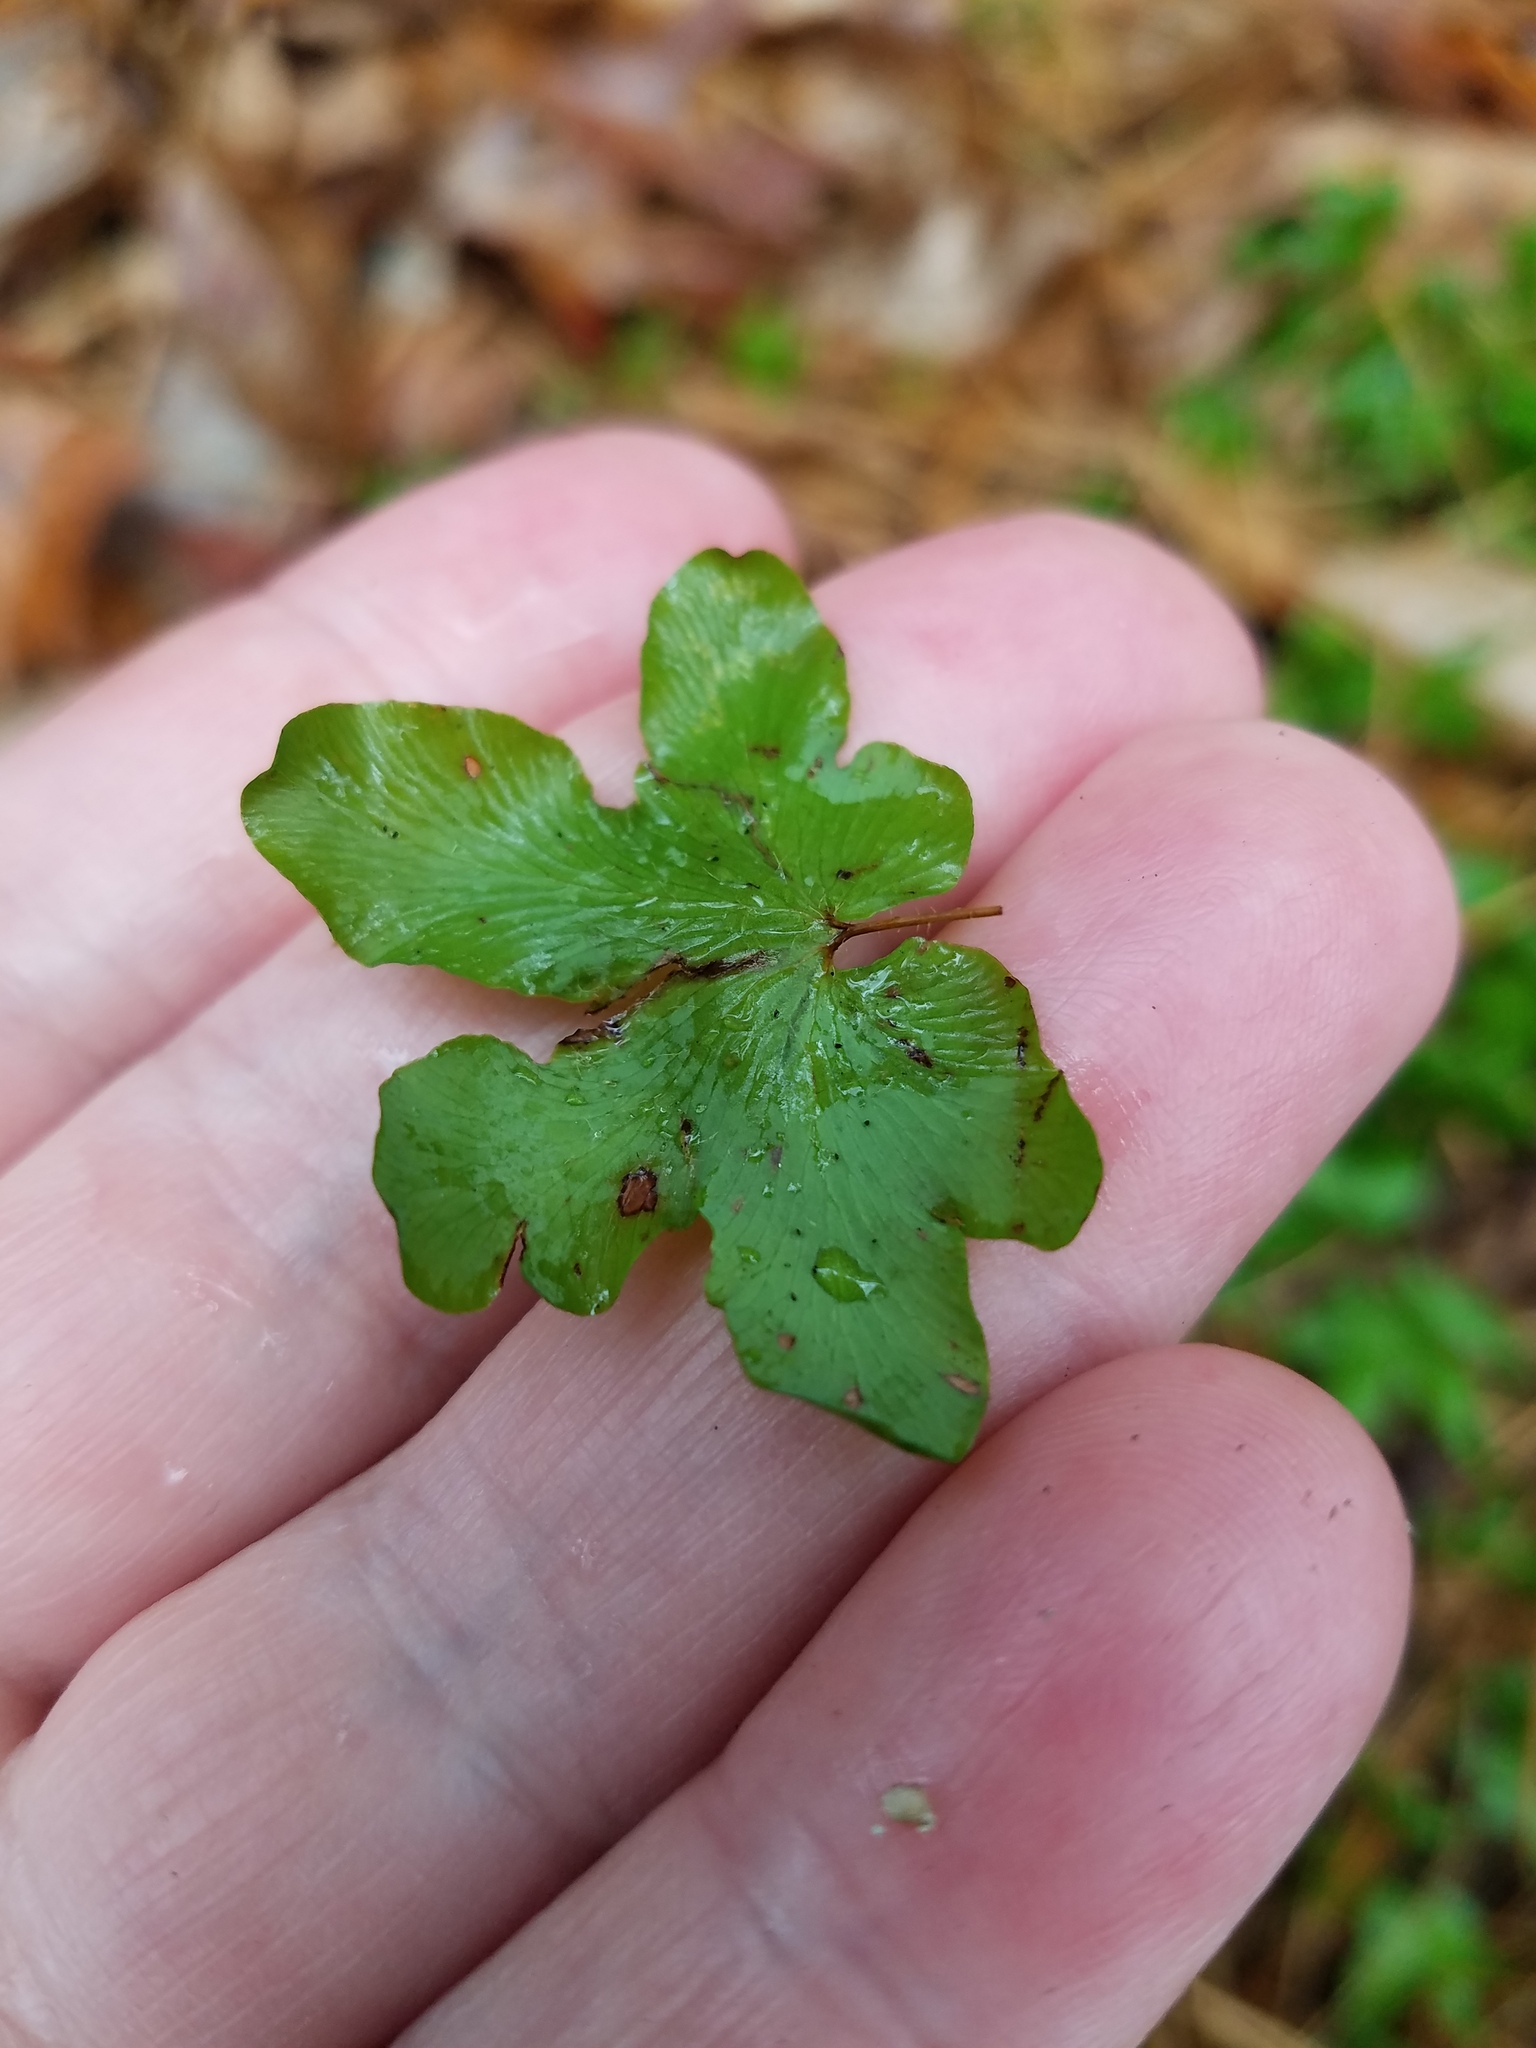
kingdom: Plantae
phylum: Tracheophyta
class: Polypodiopsida
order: Schizaeales
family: Lygodiaceae
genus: Lygodium
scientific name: Lygodium palmatum
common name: American climbing fern
